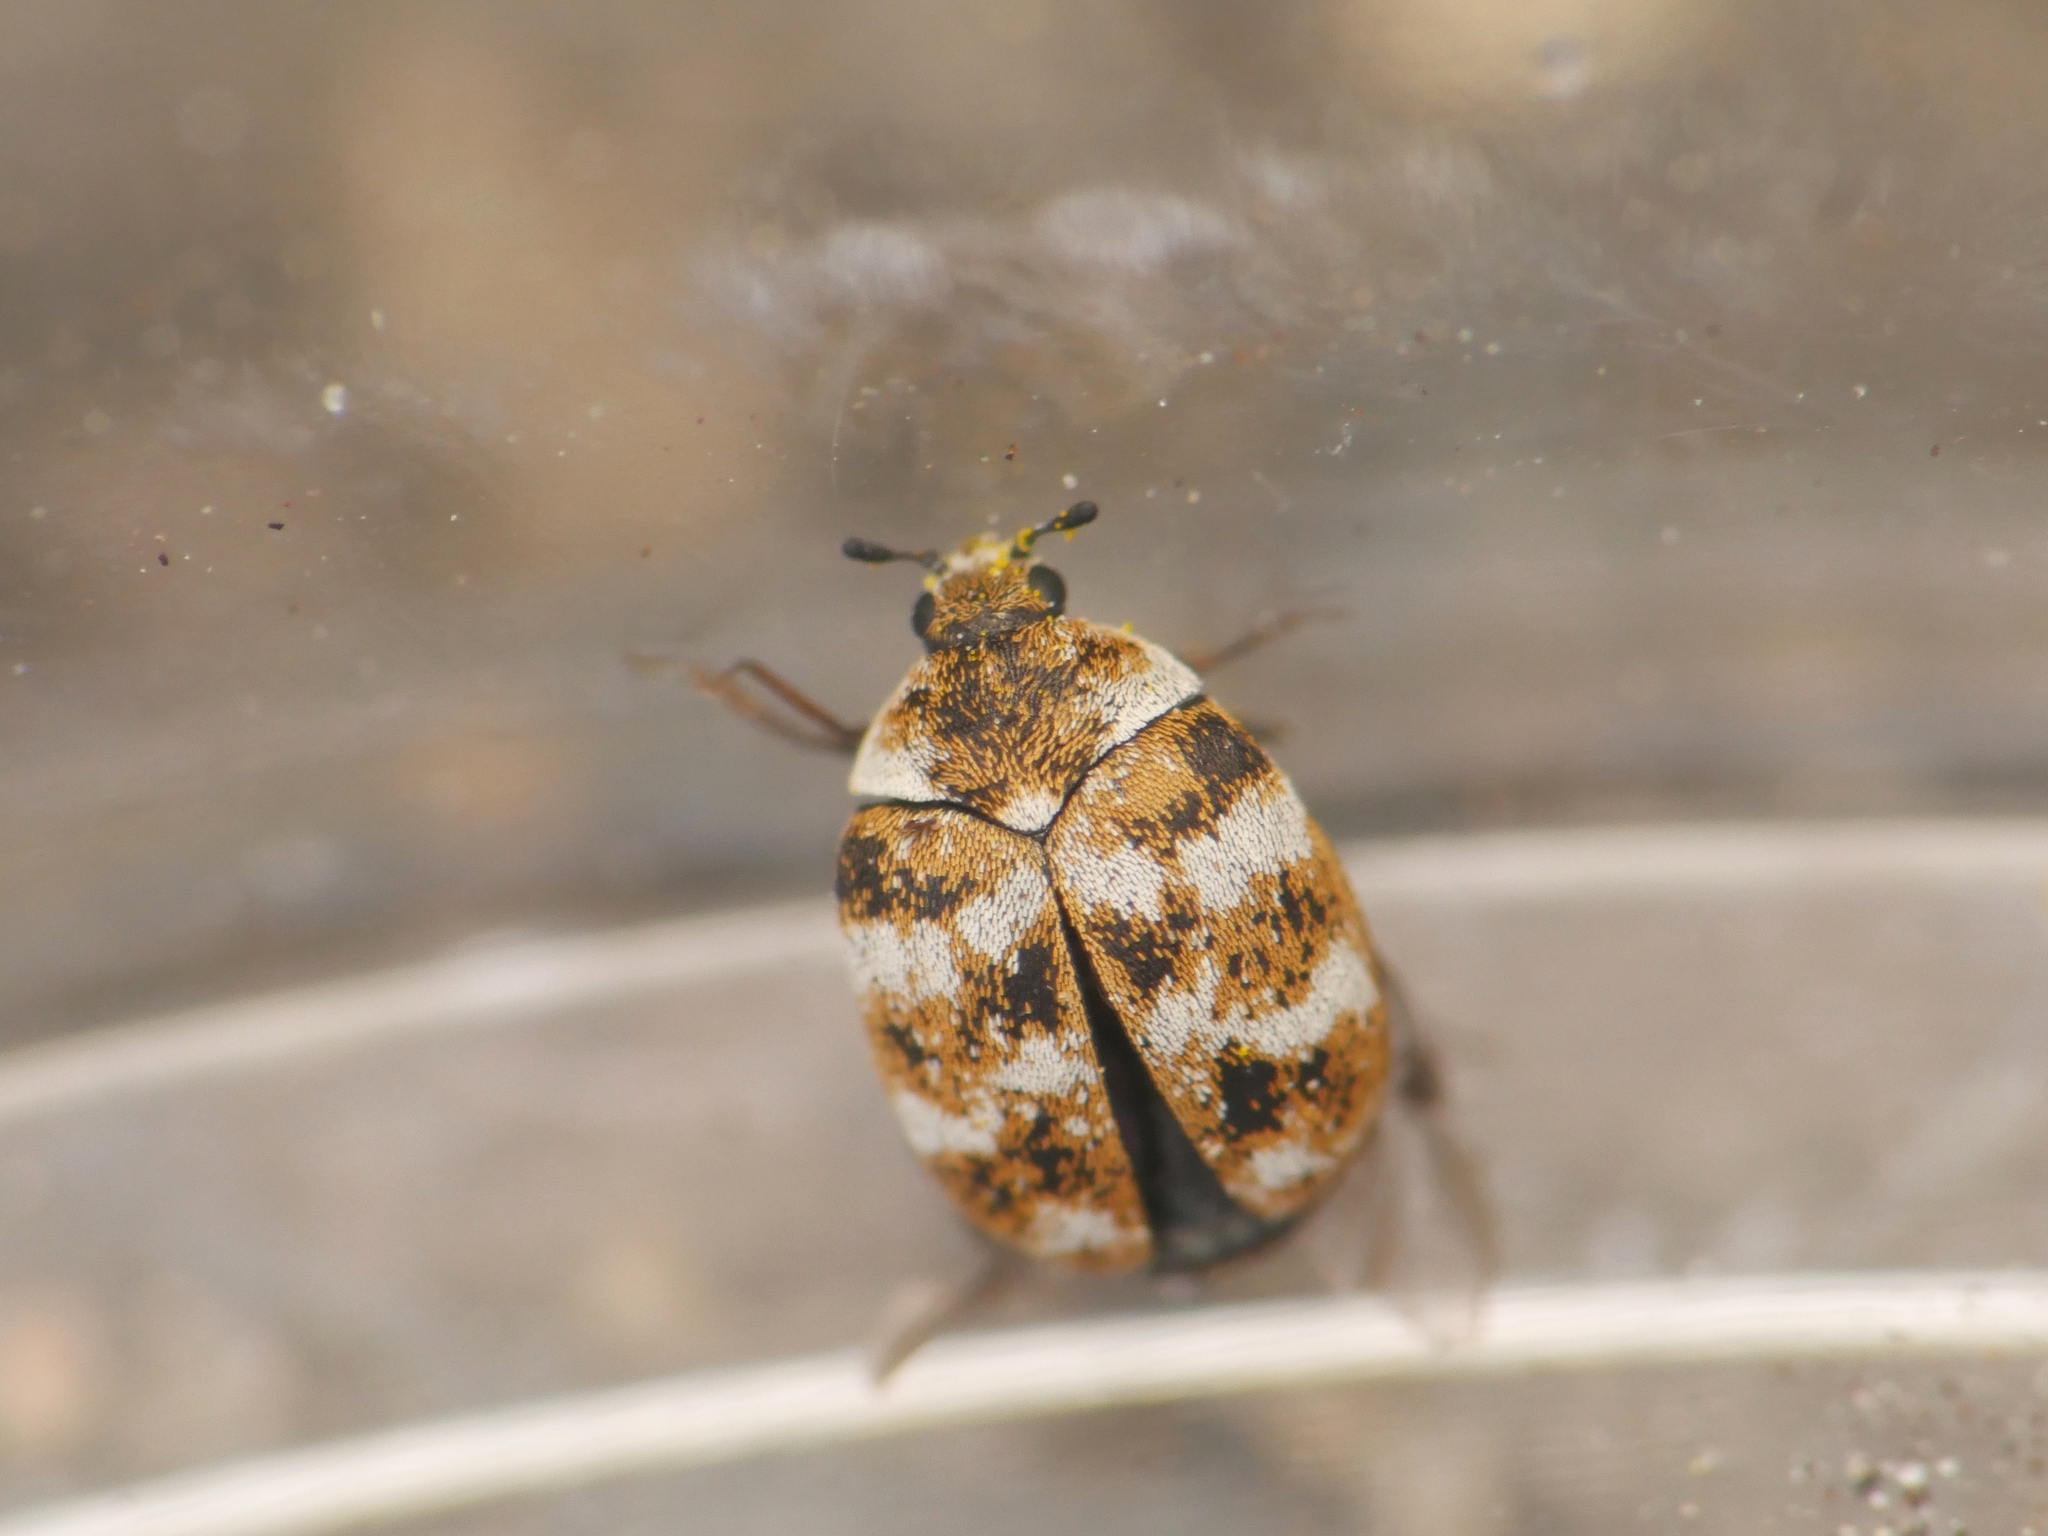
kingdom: Animalia
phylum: Arthropoda
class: Insecta
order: Coleoptera
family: Dermestidae
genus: Anthrenus
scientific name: Anthrenus verbasci
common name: Varied carpet beetle
